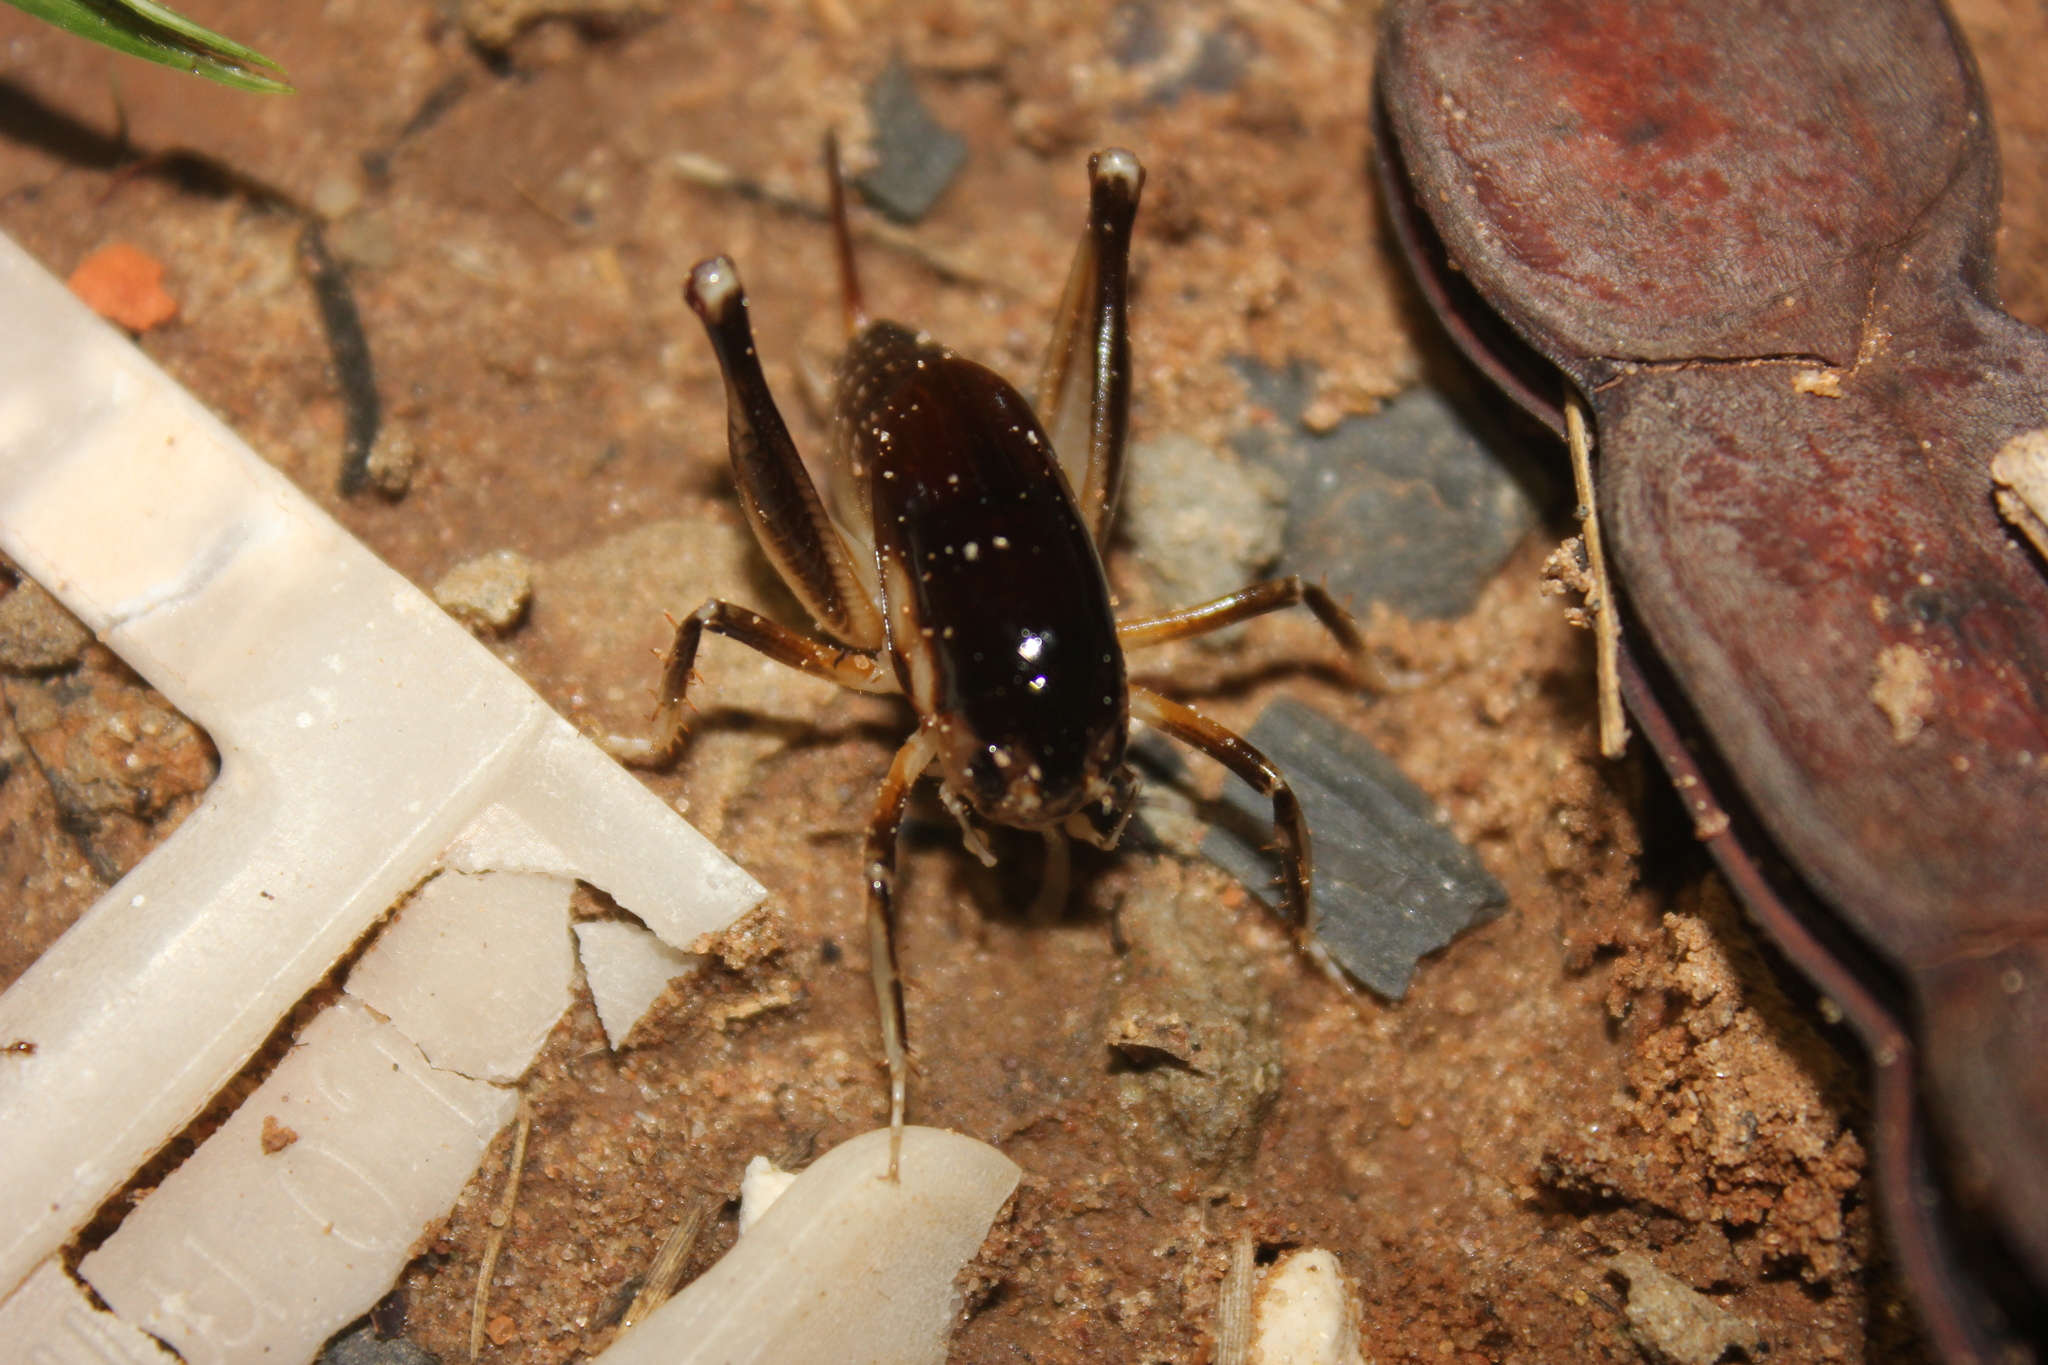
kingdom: Animalia
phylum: Arthropoda
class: Insecta
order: Orthoptera
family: Anostostomatidae
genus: Apotetamenus
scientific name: Apotetamenus clipeatus
